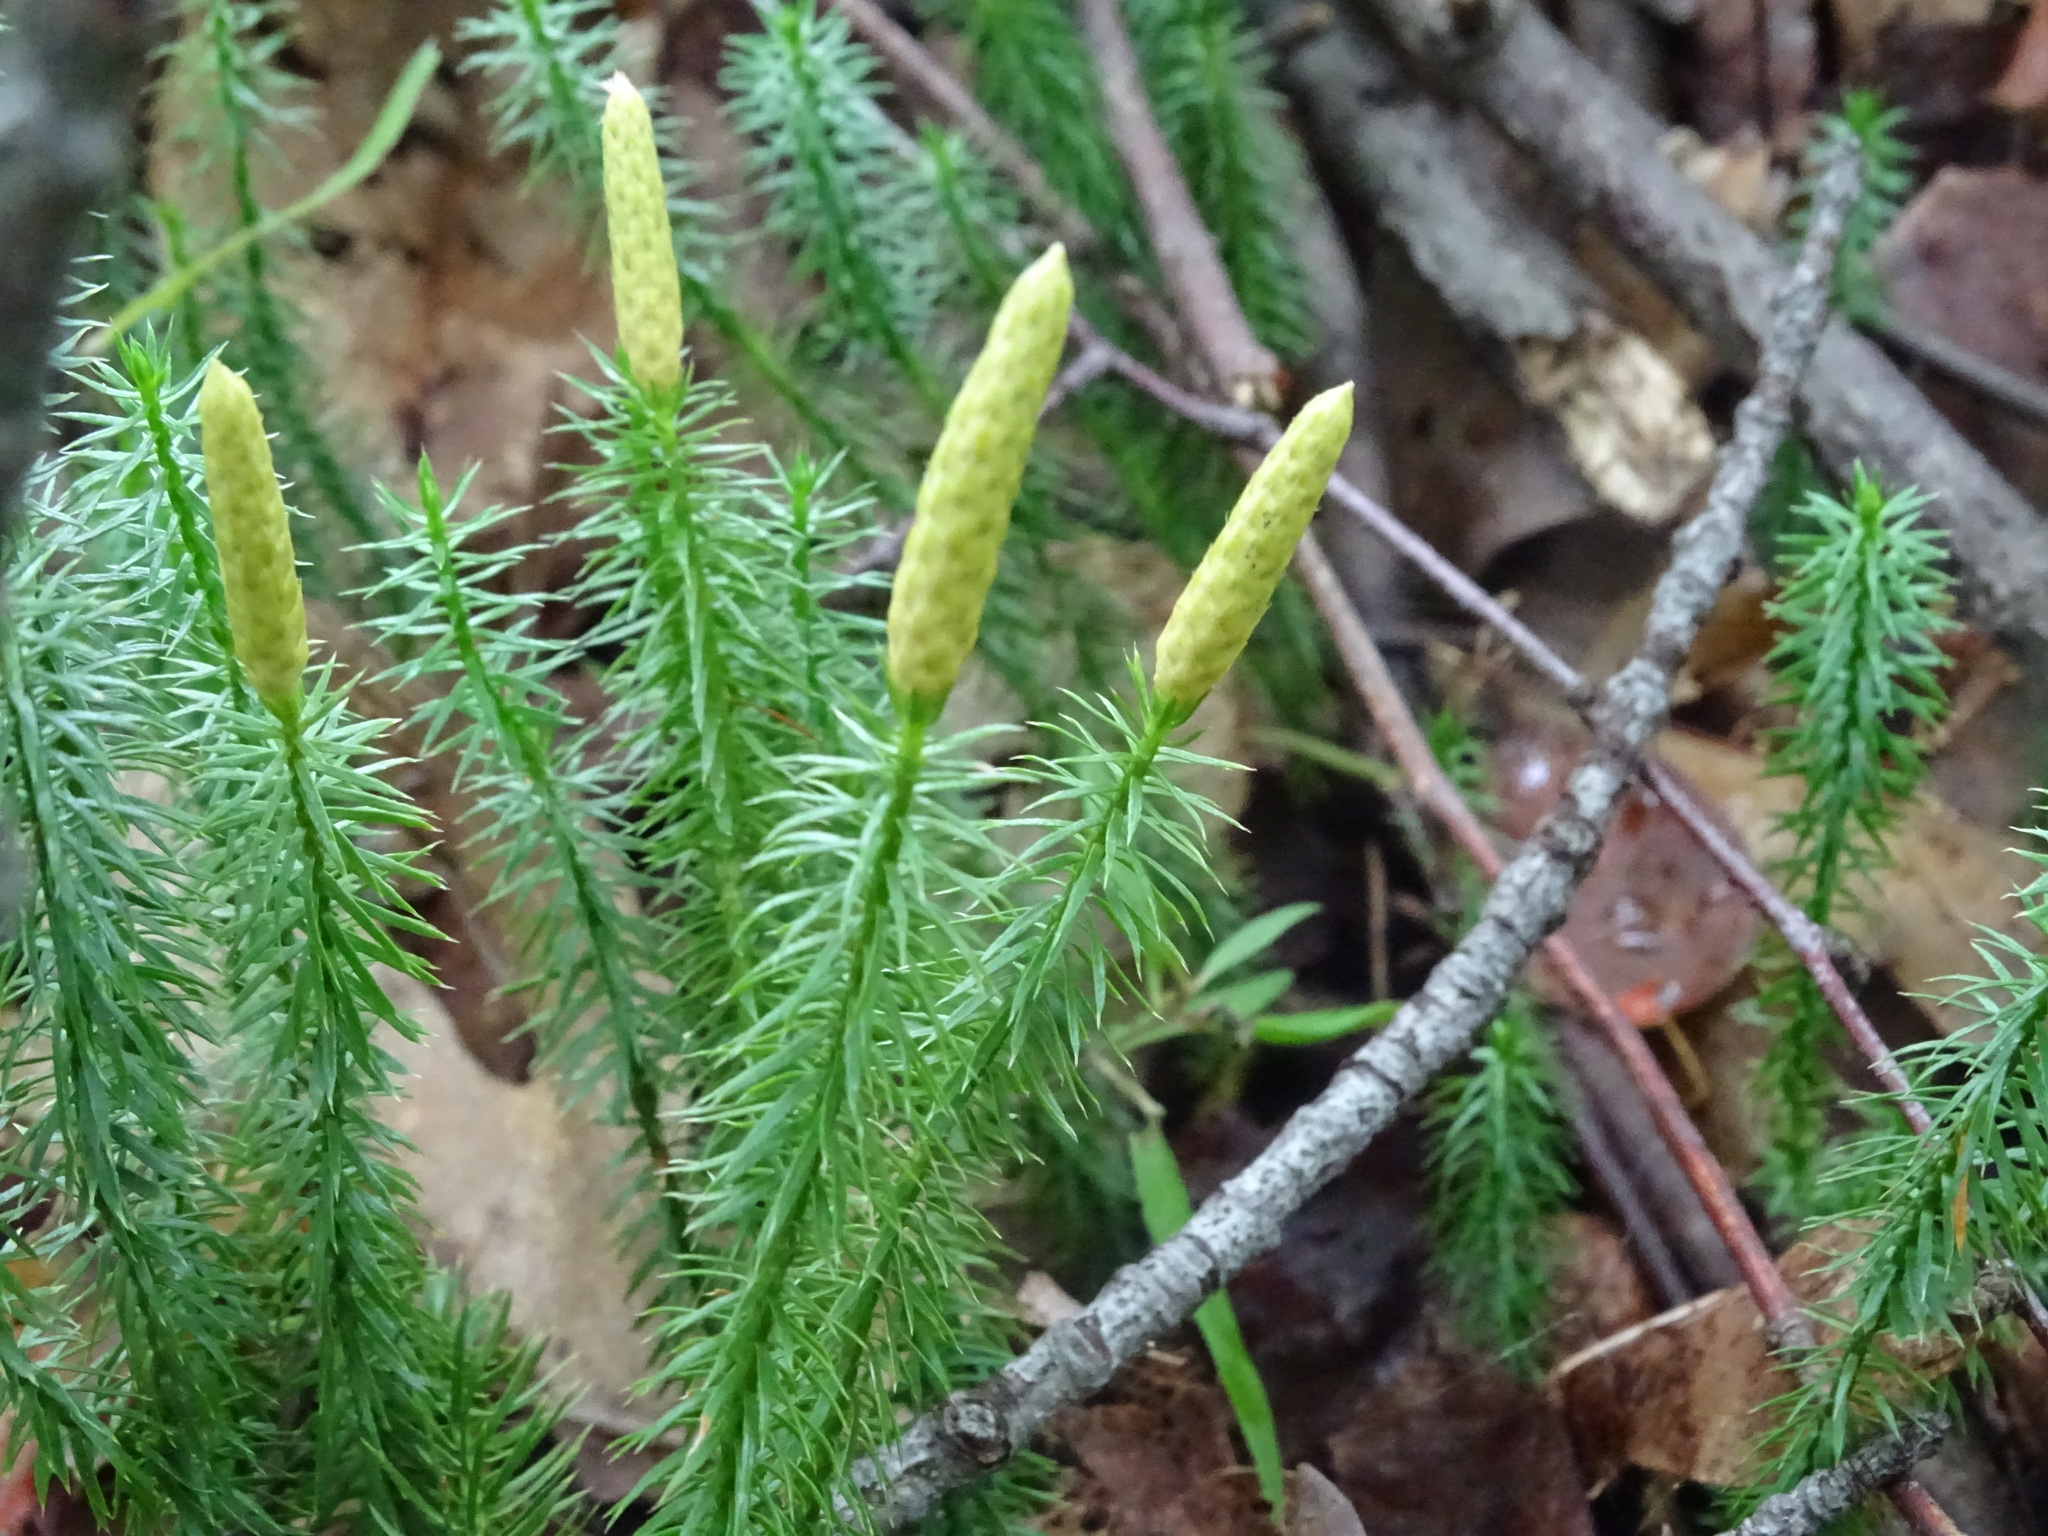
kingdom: Plantae
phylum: Tracheophyta
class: Lycopodiopsida
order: Lycopodiales
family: Lycopodiaceae
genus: Spinulum
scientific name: Spinulum annotinum
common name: Interrupted club-moss
